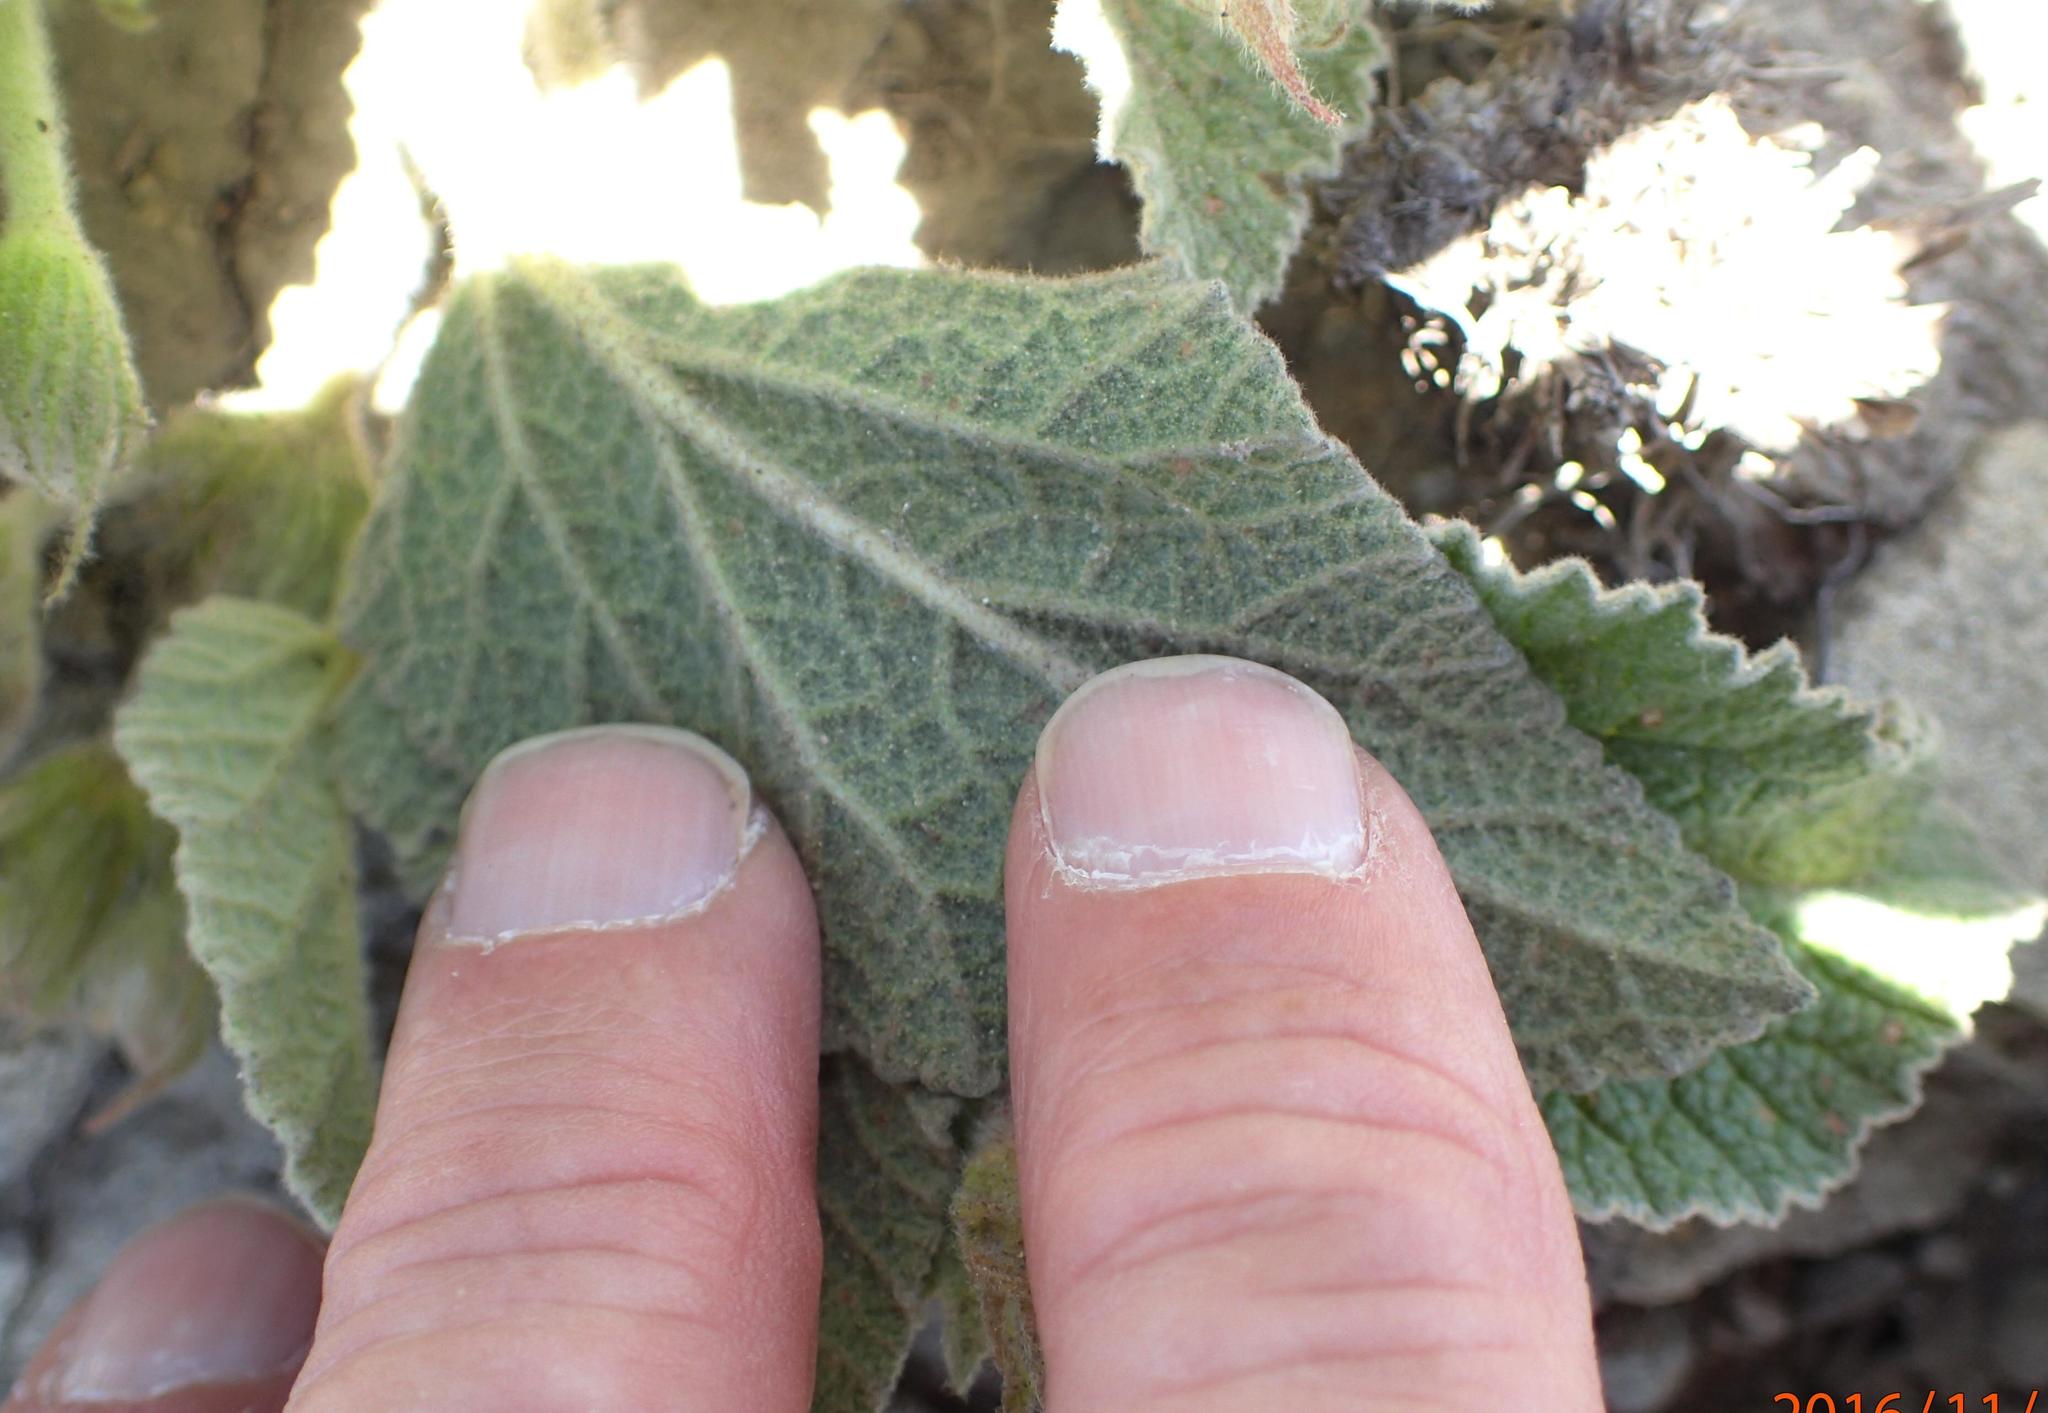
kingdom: Plantae
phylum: Tracheophyta
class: Magnoliopsida
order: Malvales
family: Malvaceae
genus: Hermannia
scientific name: Hermannia geniculata
